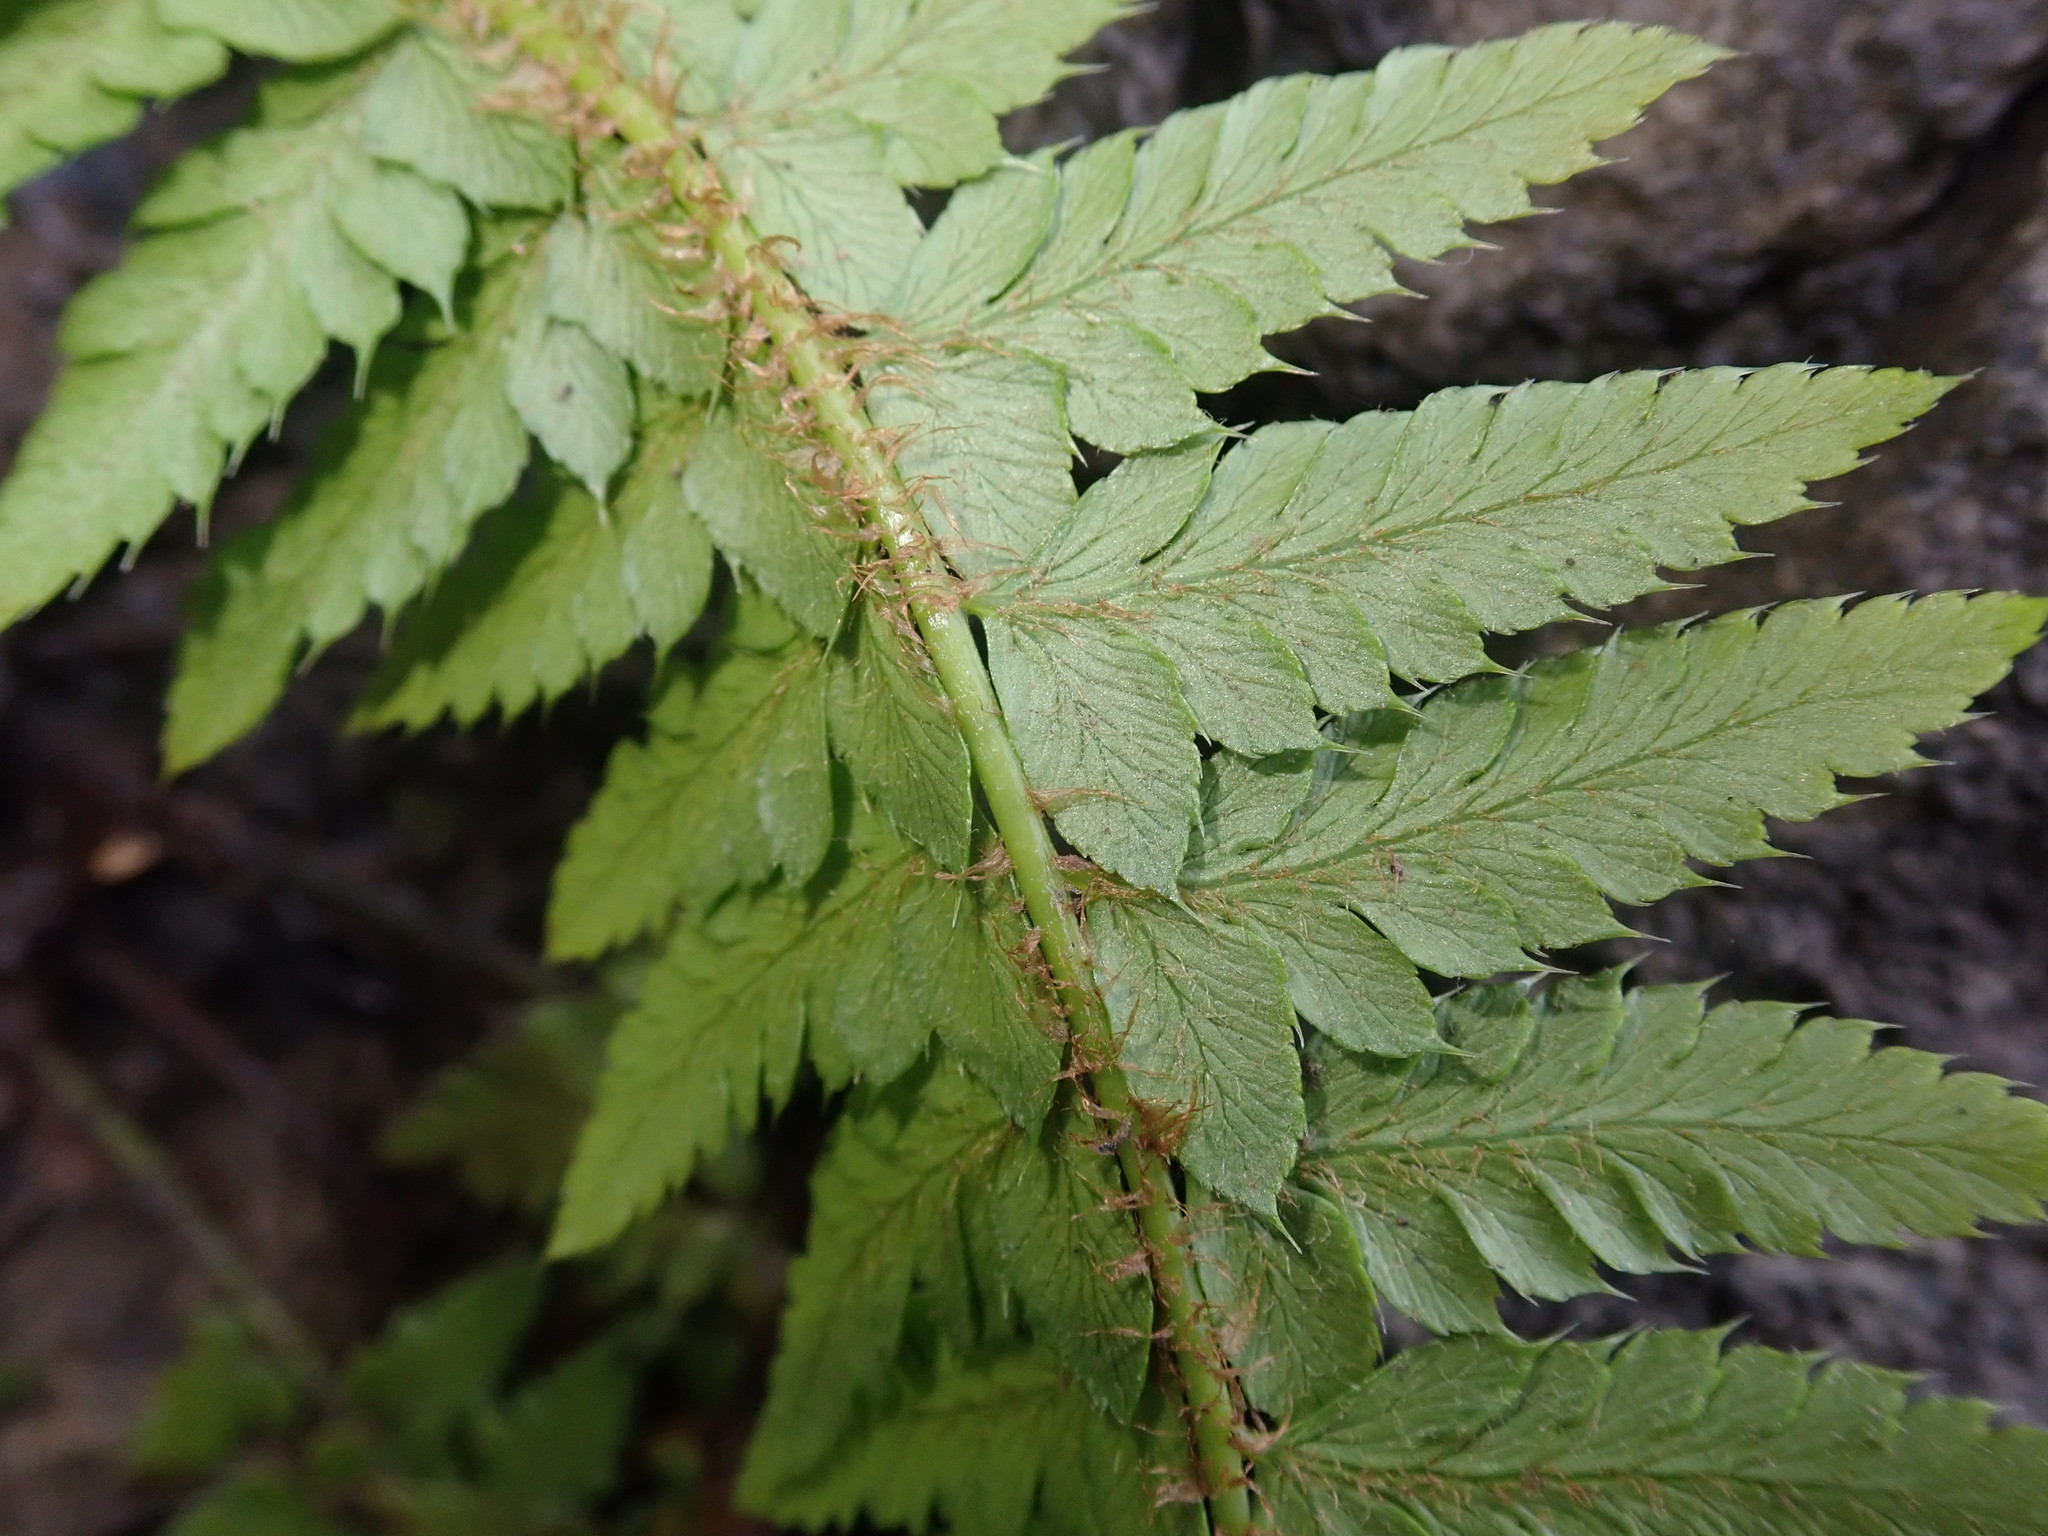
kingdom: Plantae
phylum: Tracheophyta
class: Polypodiopsida
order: Polypodiales
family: Dryopteridaceae
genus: Polystichum
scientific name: Polystichum aculeatum
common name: Hard shield-fern
